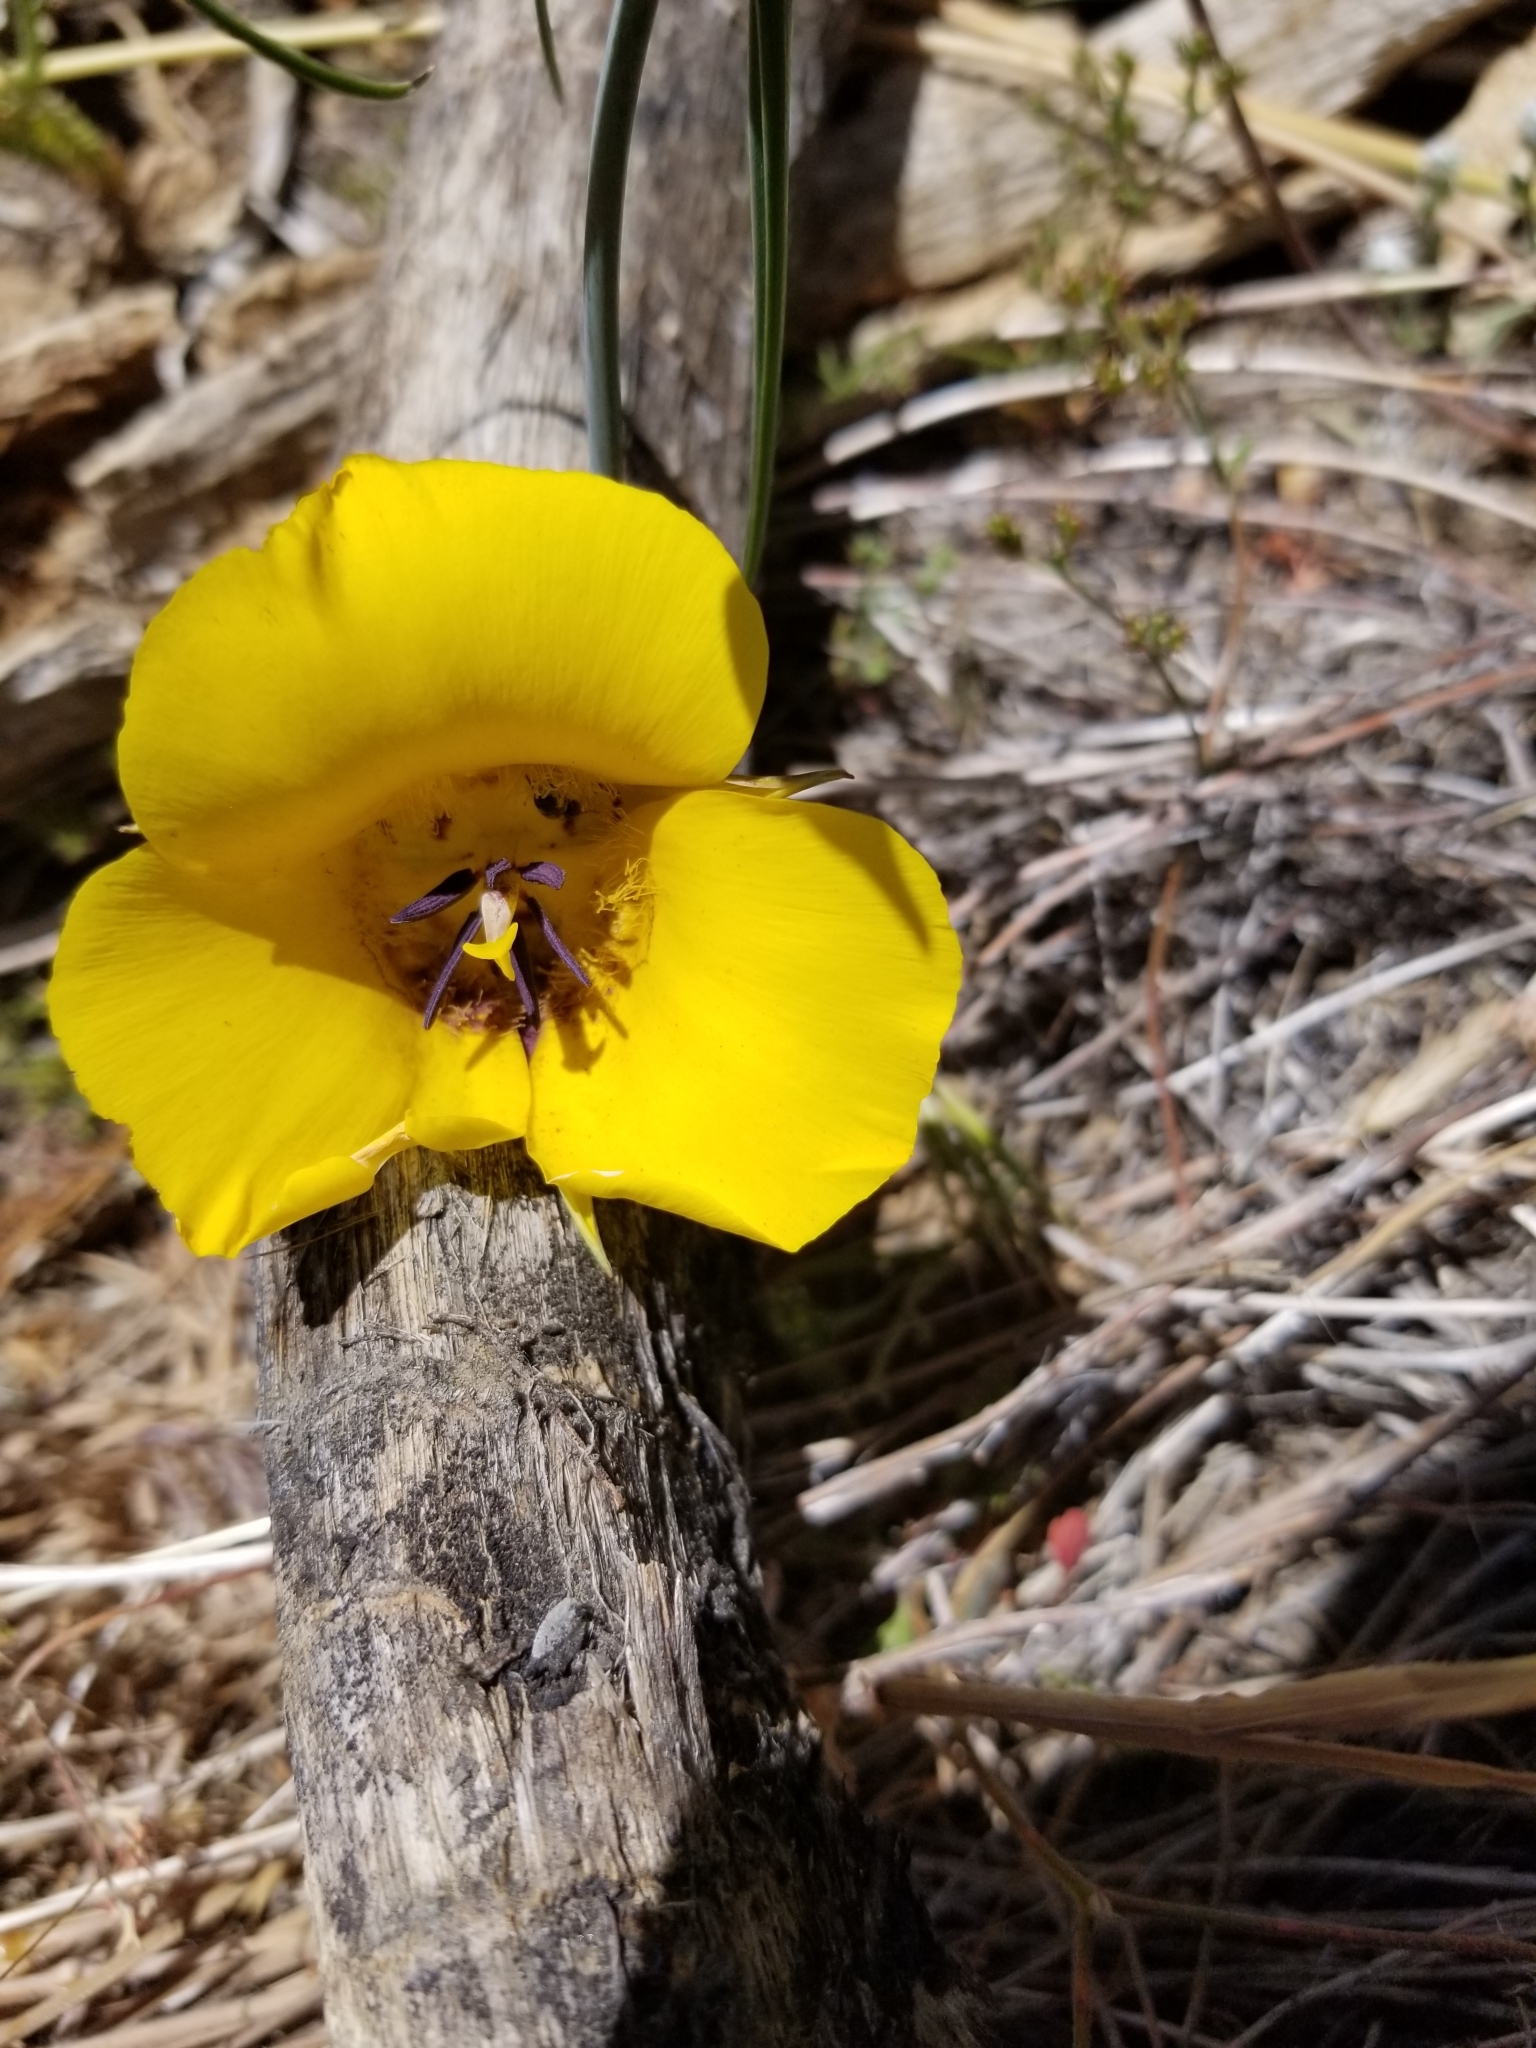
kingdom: Plantae
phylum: Tracheophyta
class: Liliopsida
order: Liliales
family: Liliaceae
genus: Calochortus
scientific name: Calochortus clavatus
